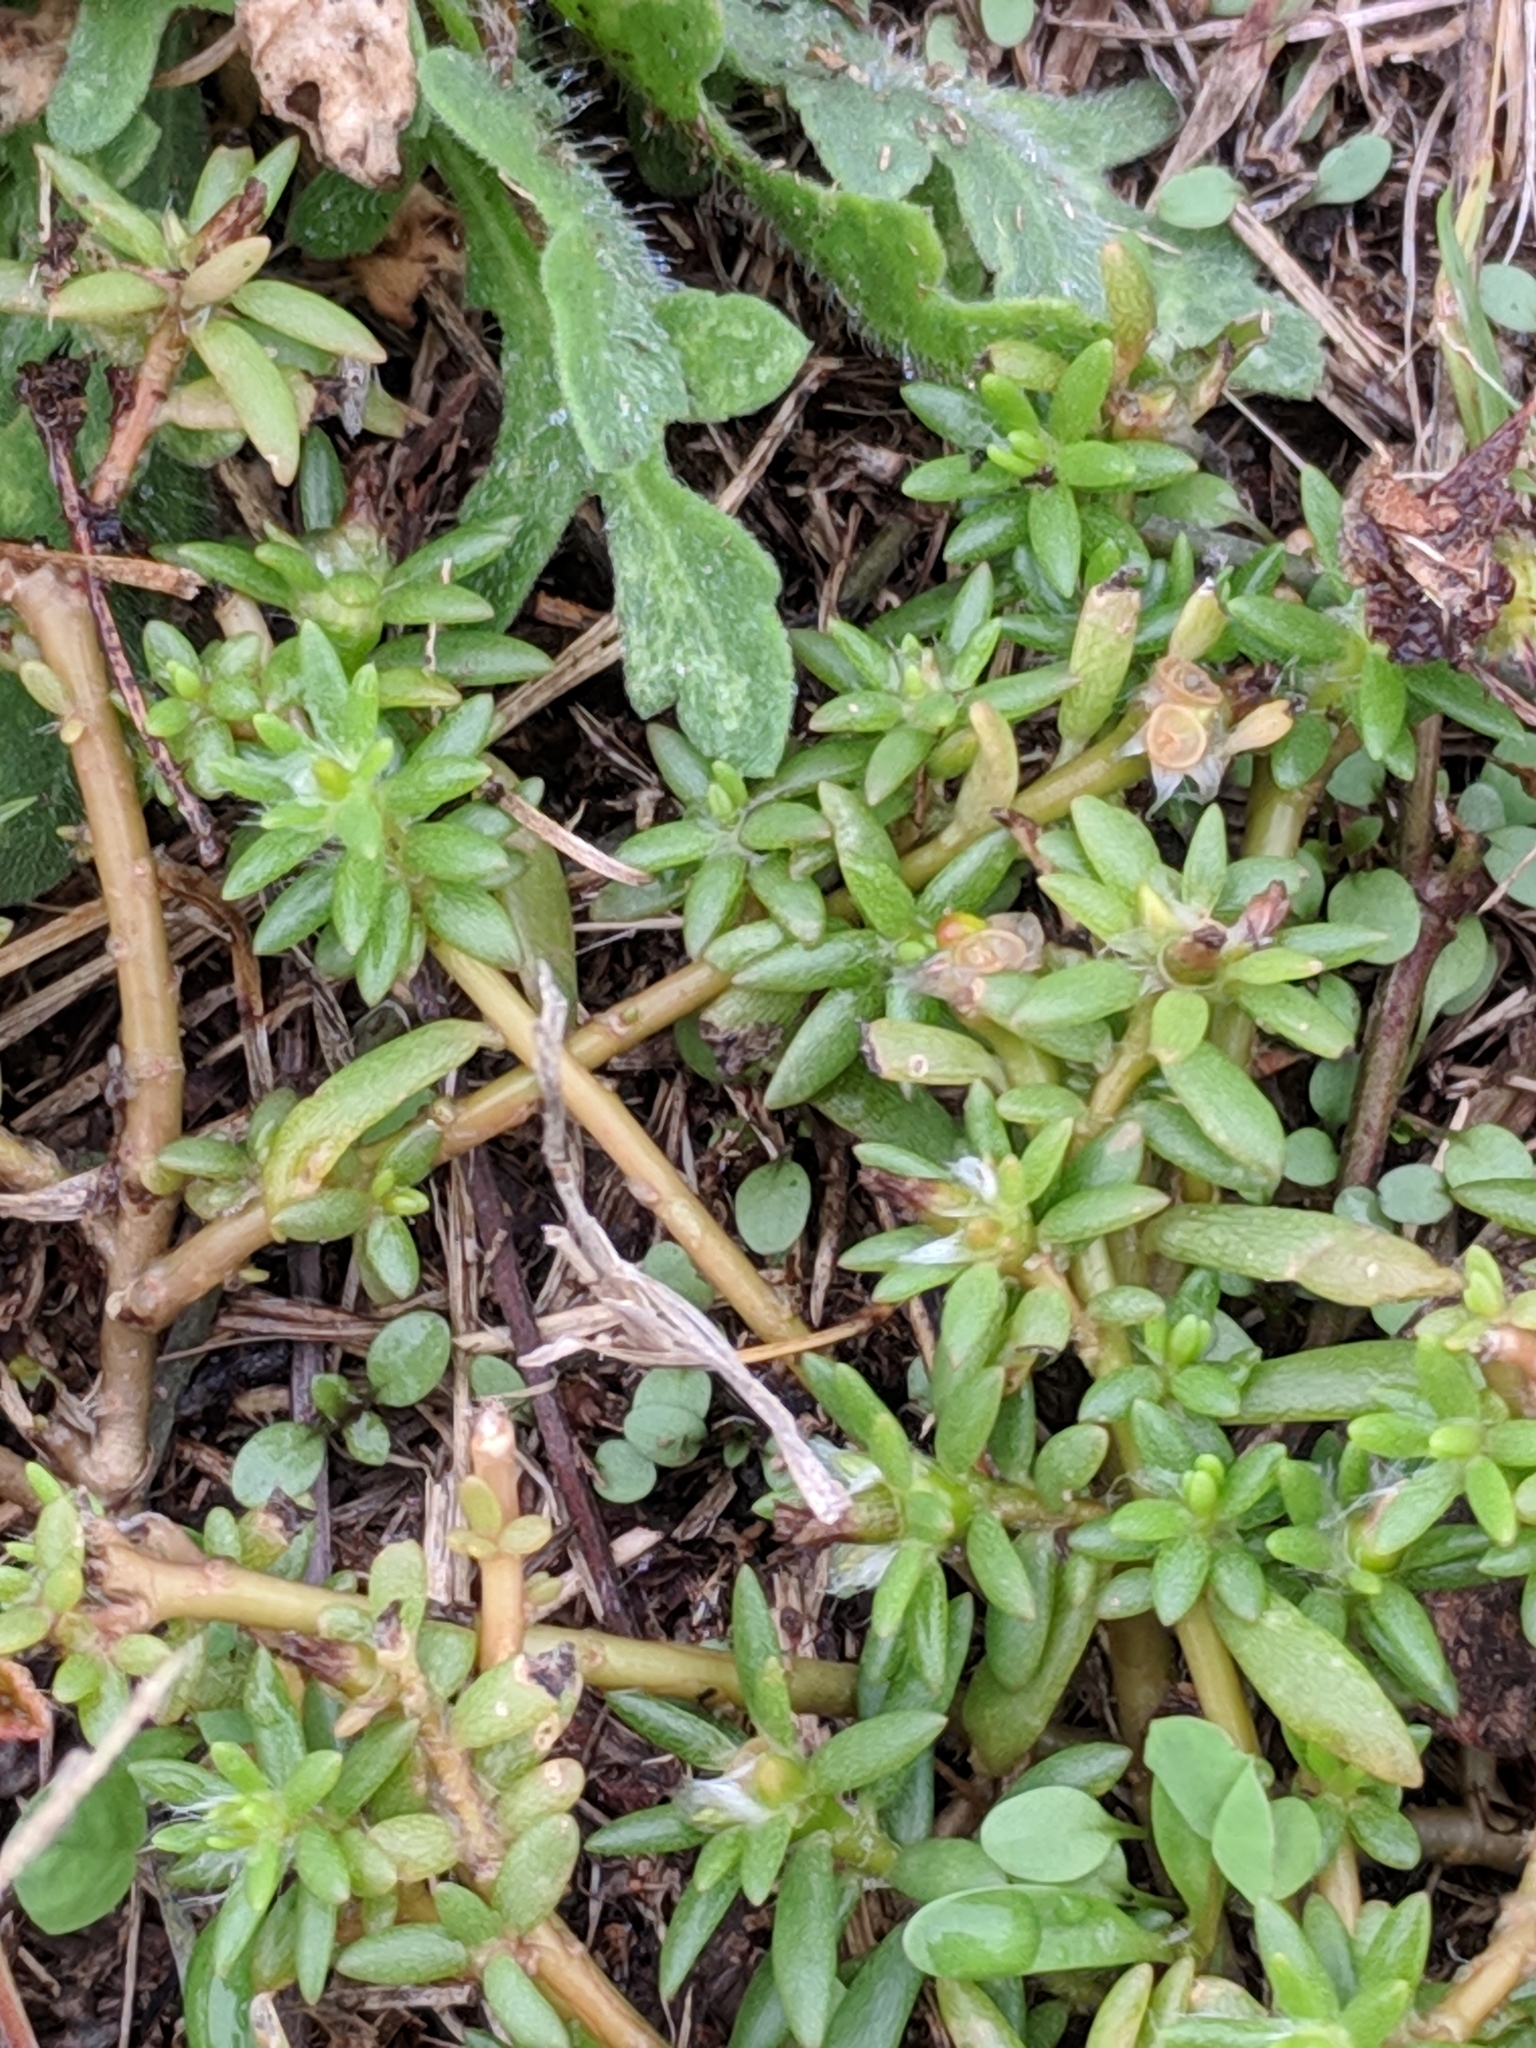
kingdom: Plantae
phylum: Tracheophyta
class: Magnoliopsida
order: Caryophyllales
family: Portulacaceae
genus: Portulaca
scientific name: Portulaca pilosa
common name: Kiss me quick
